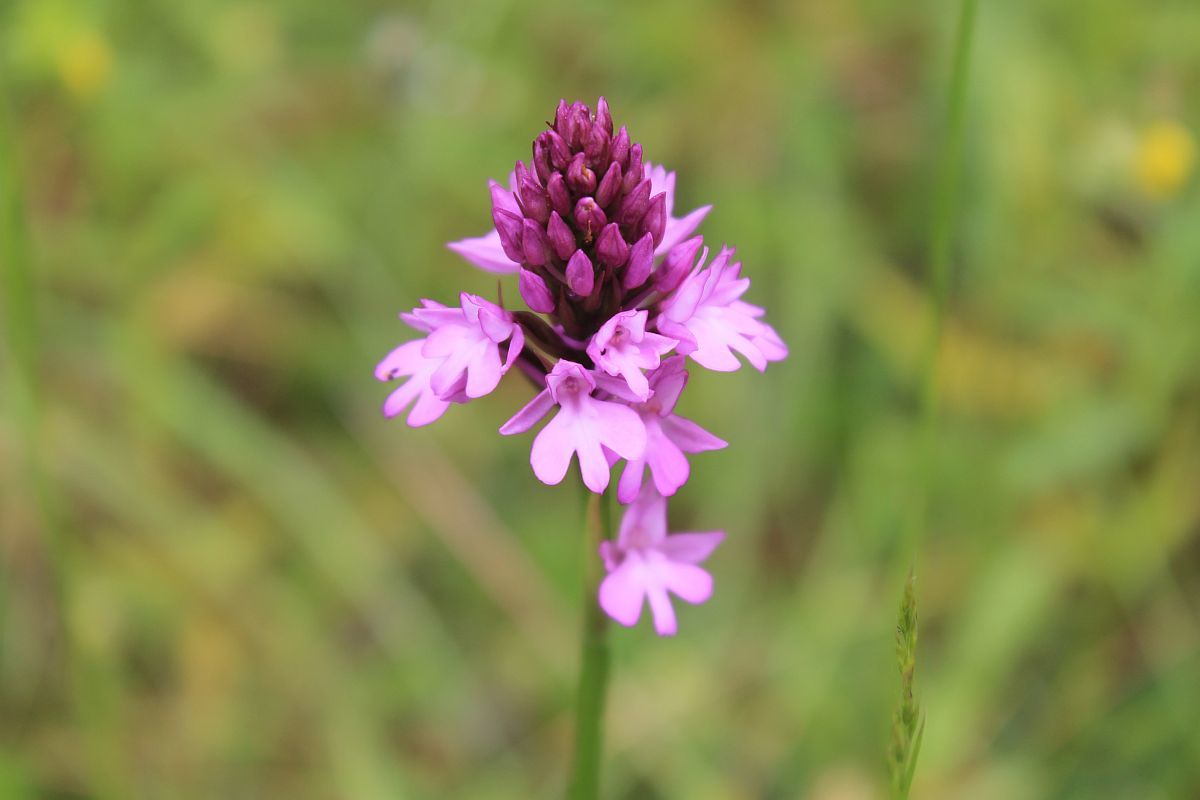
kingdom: Plantae
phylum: Tracheophyta
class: Liliopsida
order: Asparagales
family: Orchidaceae
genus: Anacamptis
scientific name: Anacamptis pyramidalis
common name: Pyramidal orchid
